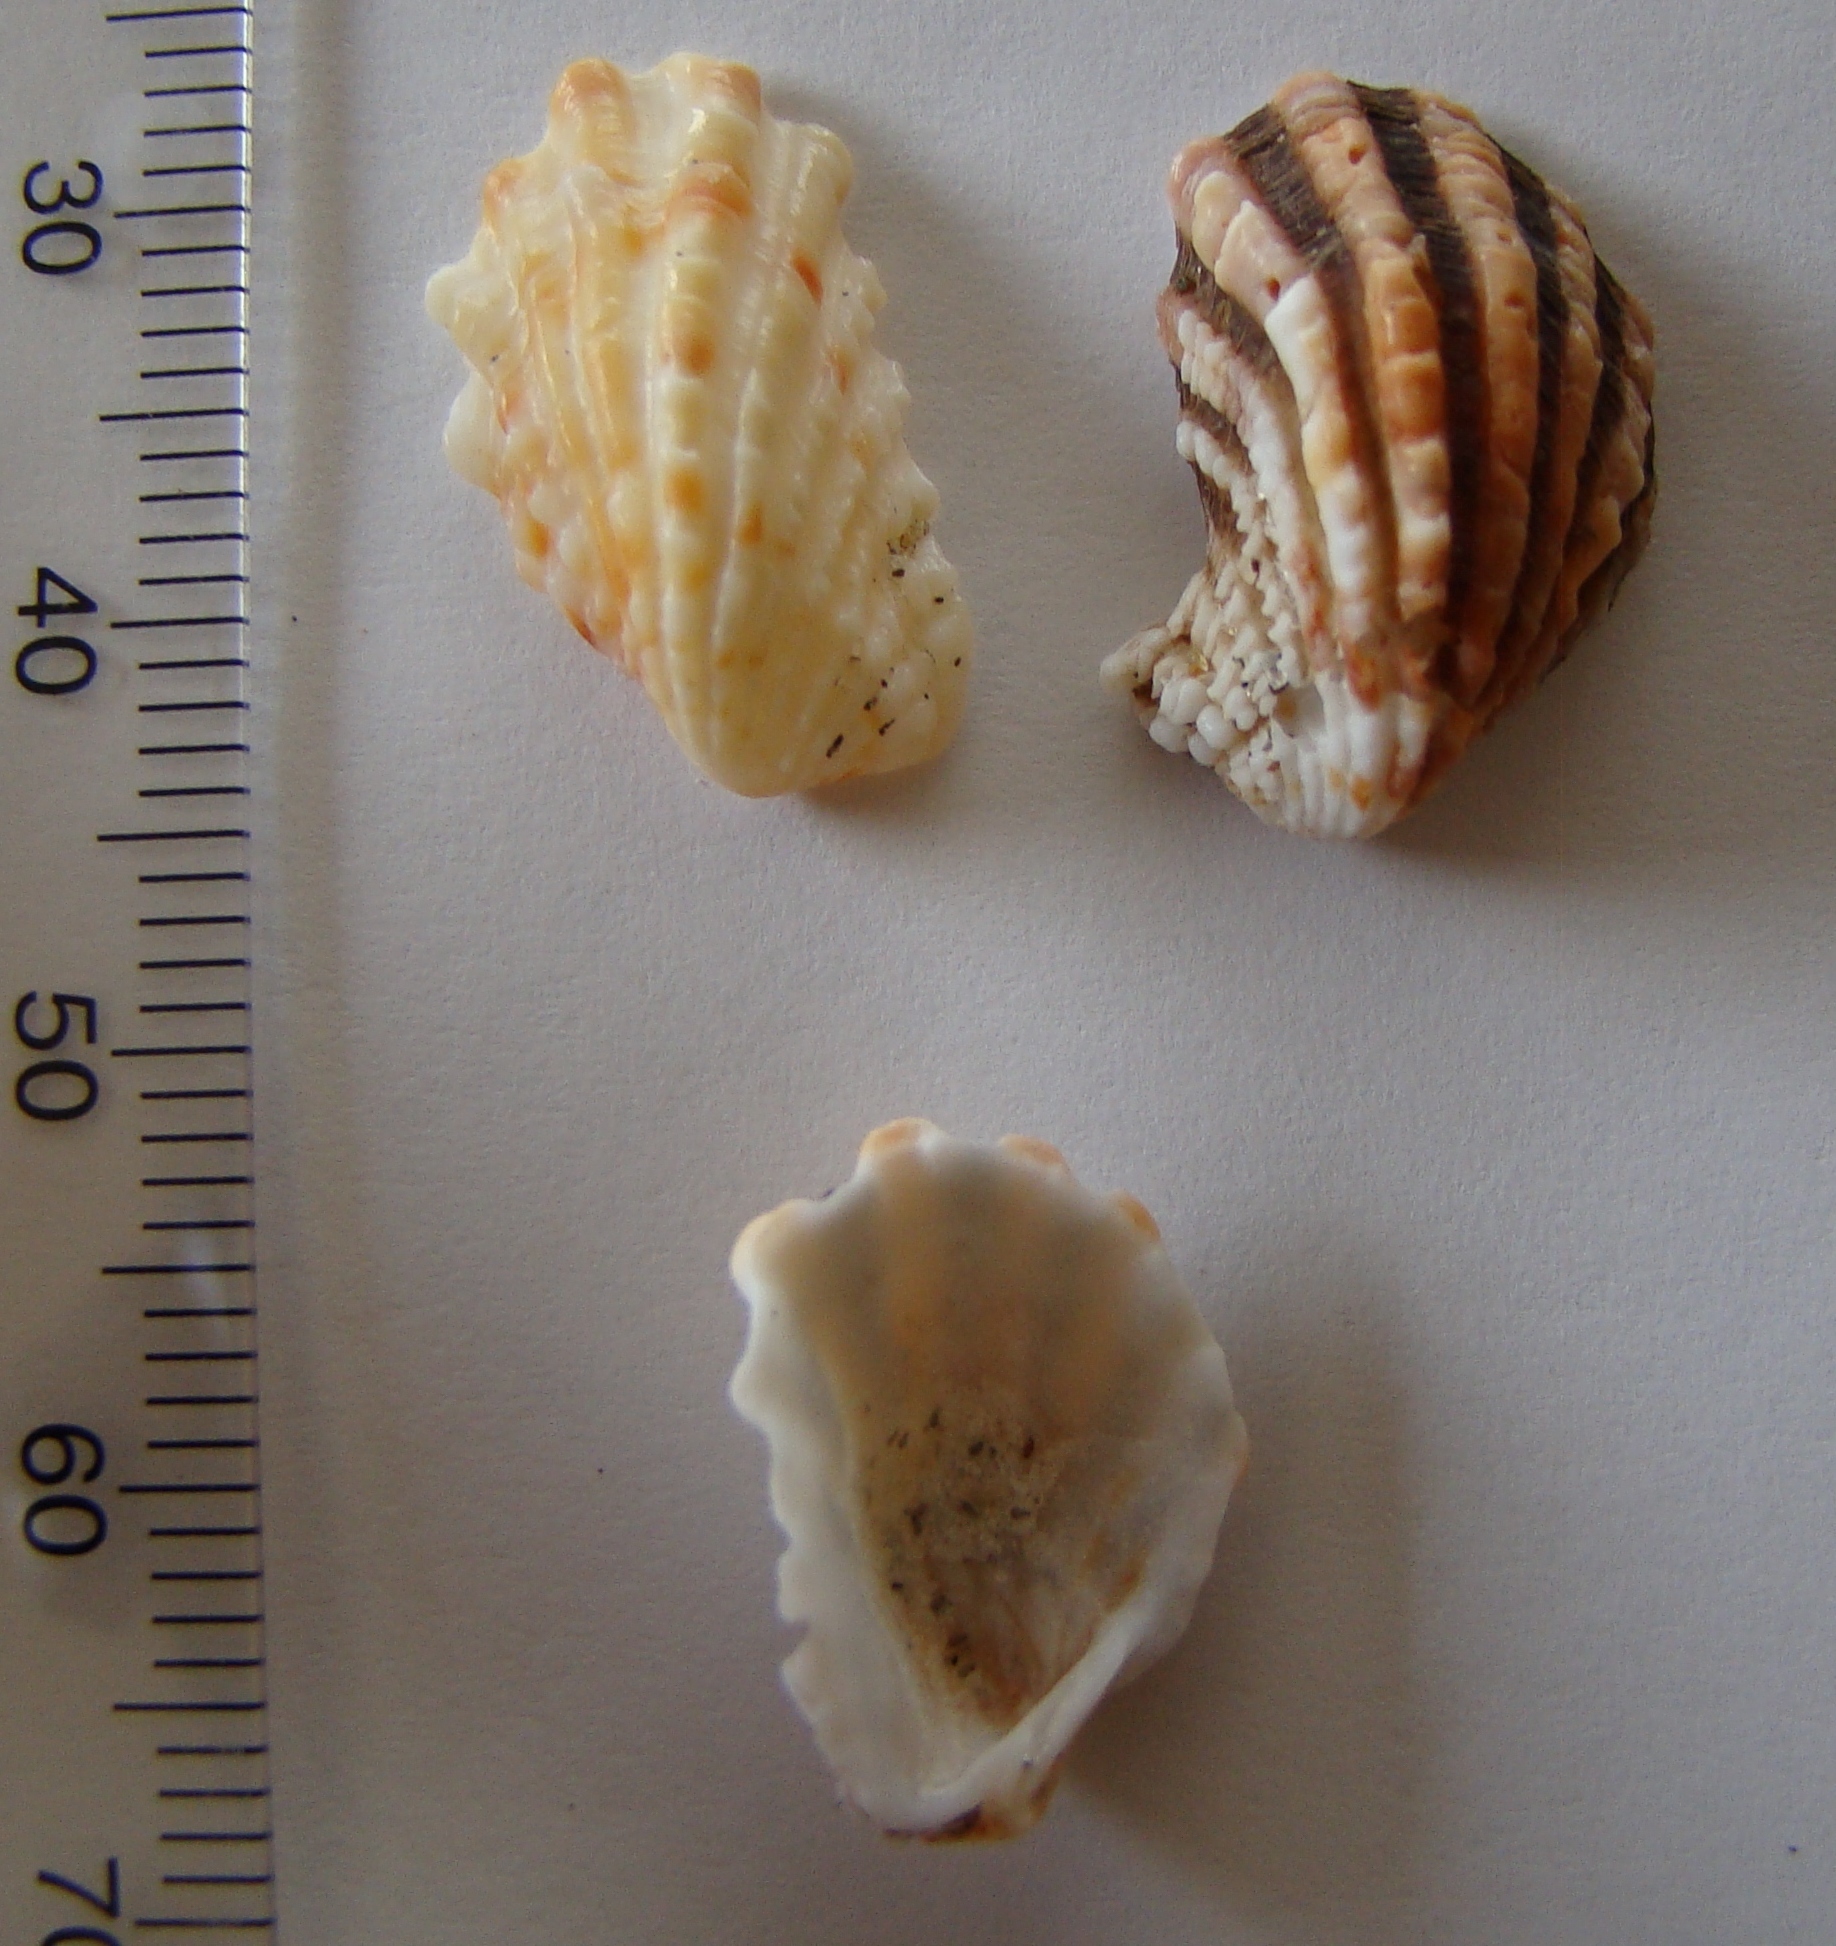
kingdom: Animalia
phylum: Mollusca
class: Bivalvia
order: Carditida
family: Carditidae
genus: Cardita
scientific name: Cardita distorta
